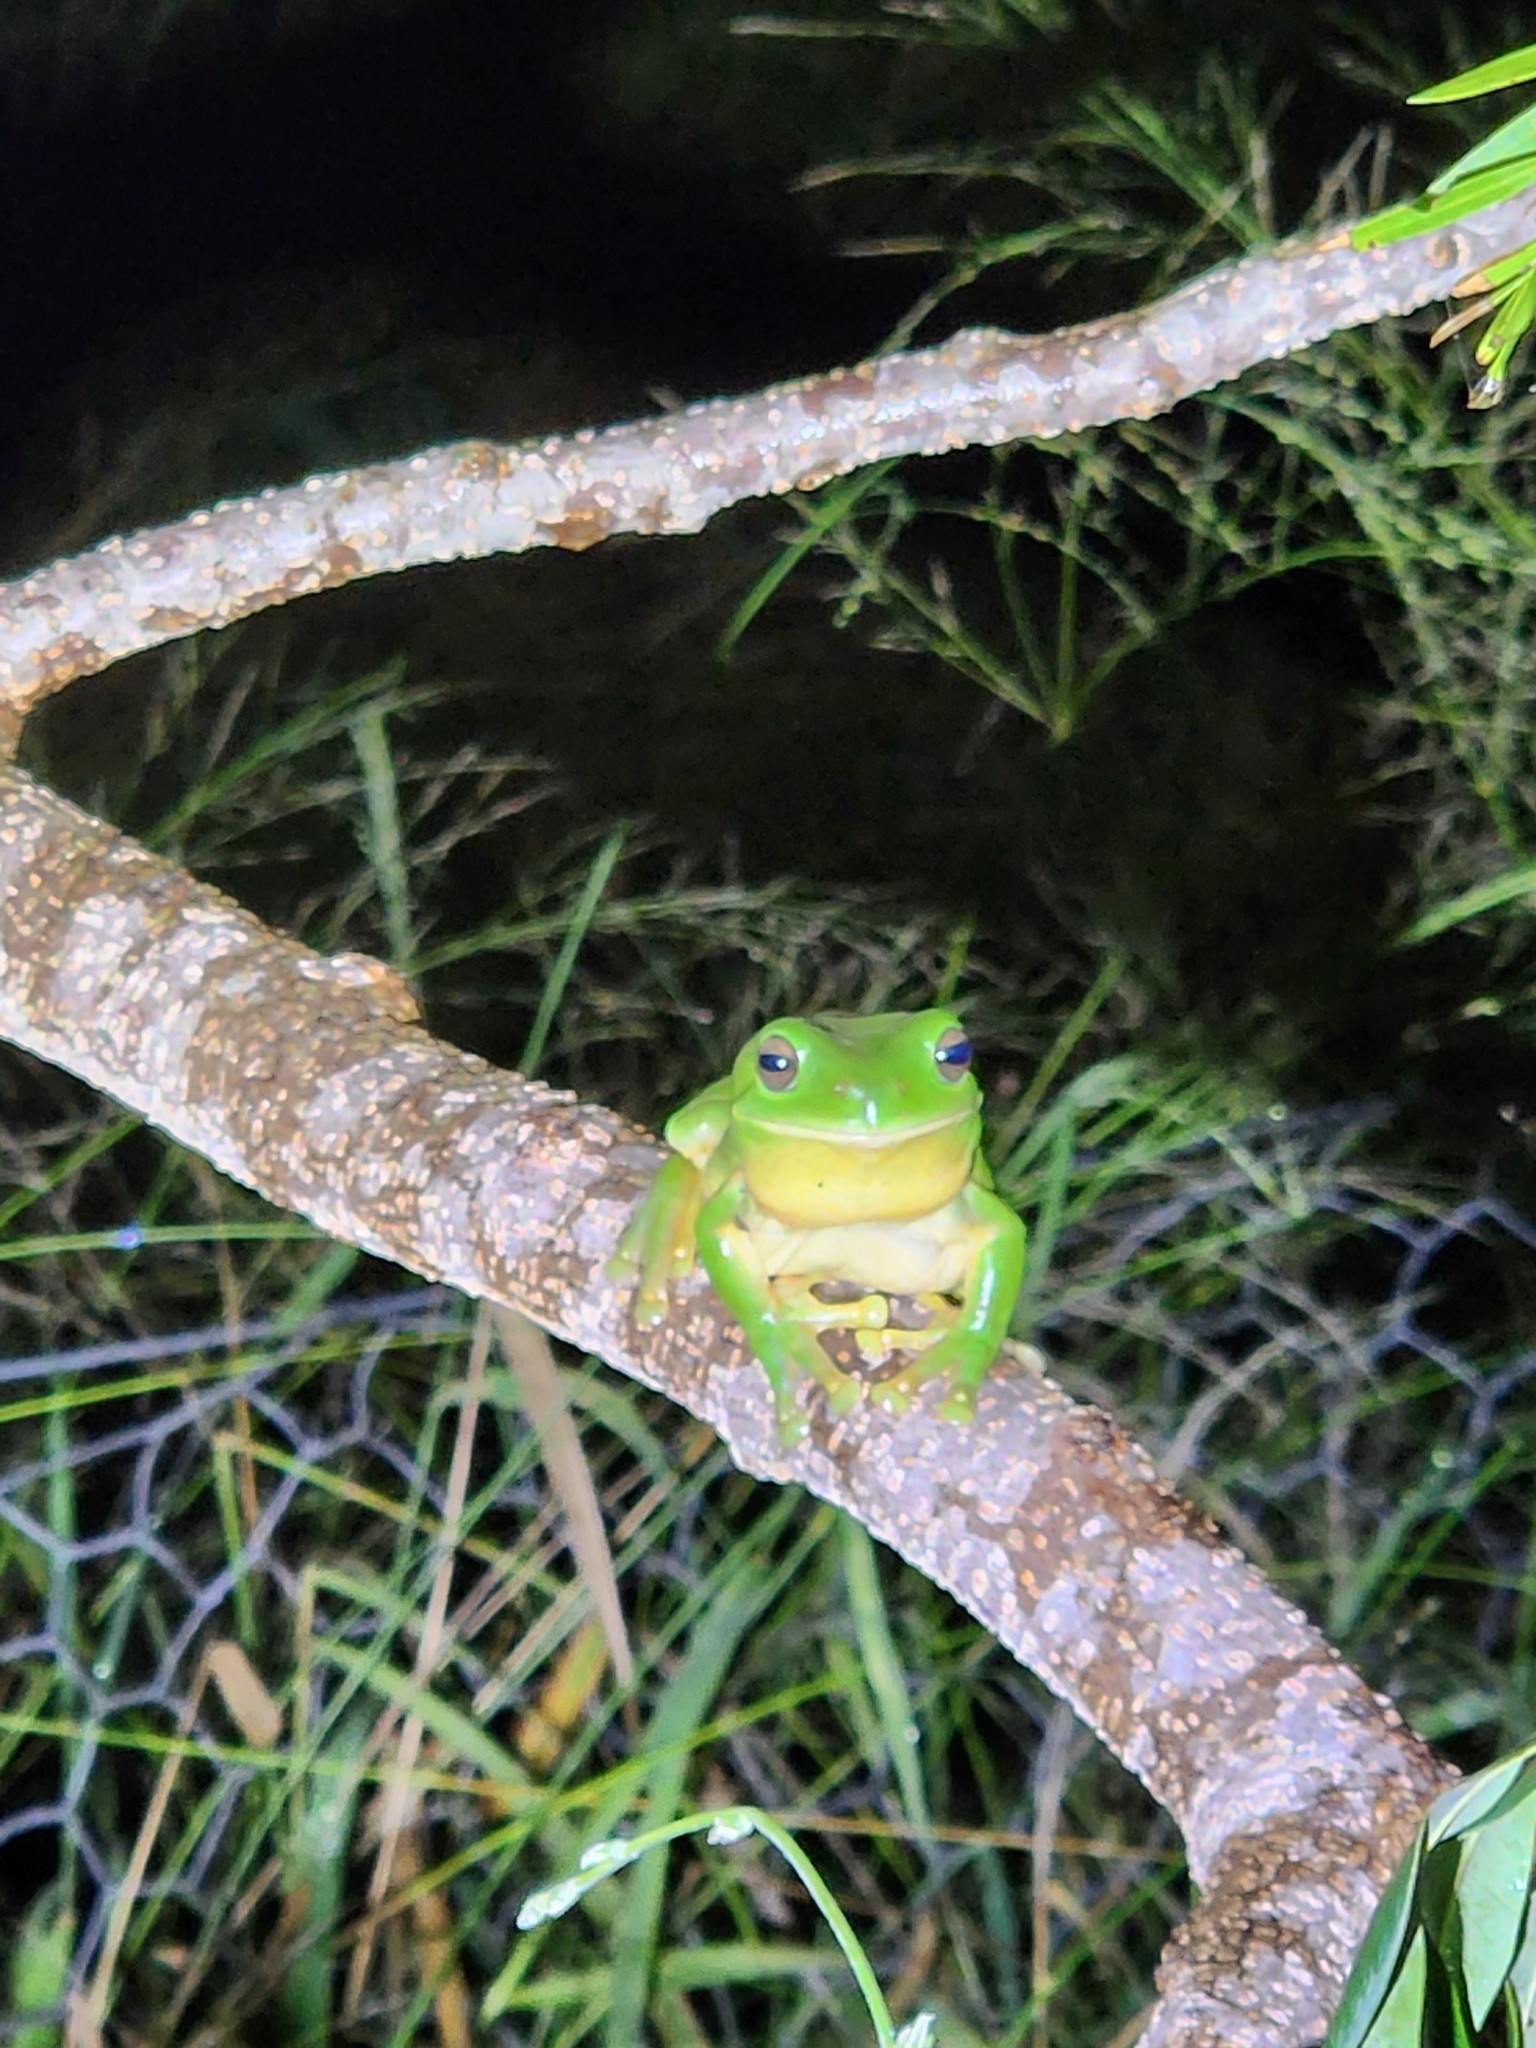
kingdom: Animalia
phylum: Chordata
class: Amphibia
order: Anura
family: Pelodryadidae
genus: Ranoidea
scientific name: Ranoidea caerulea
